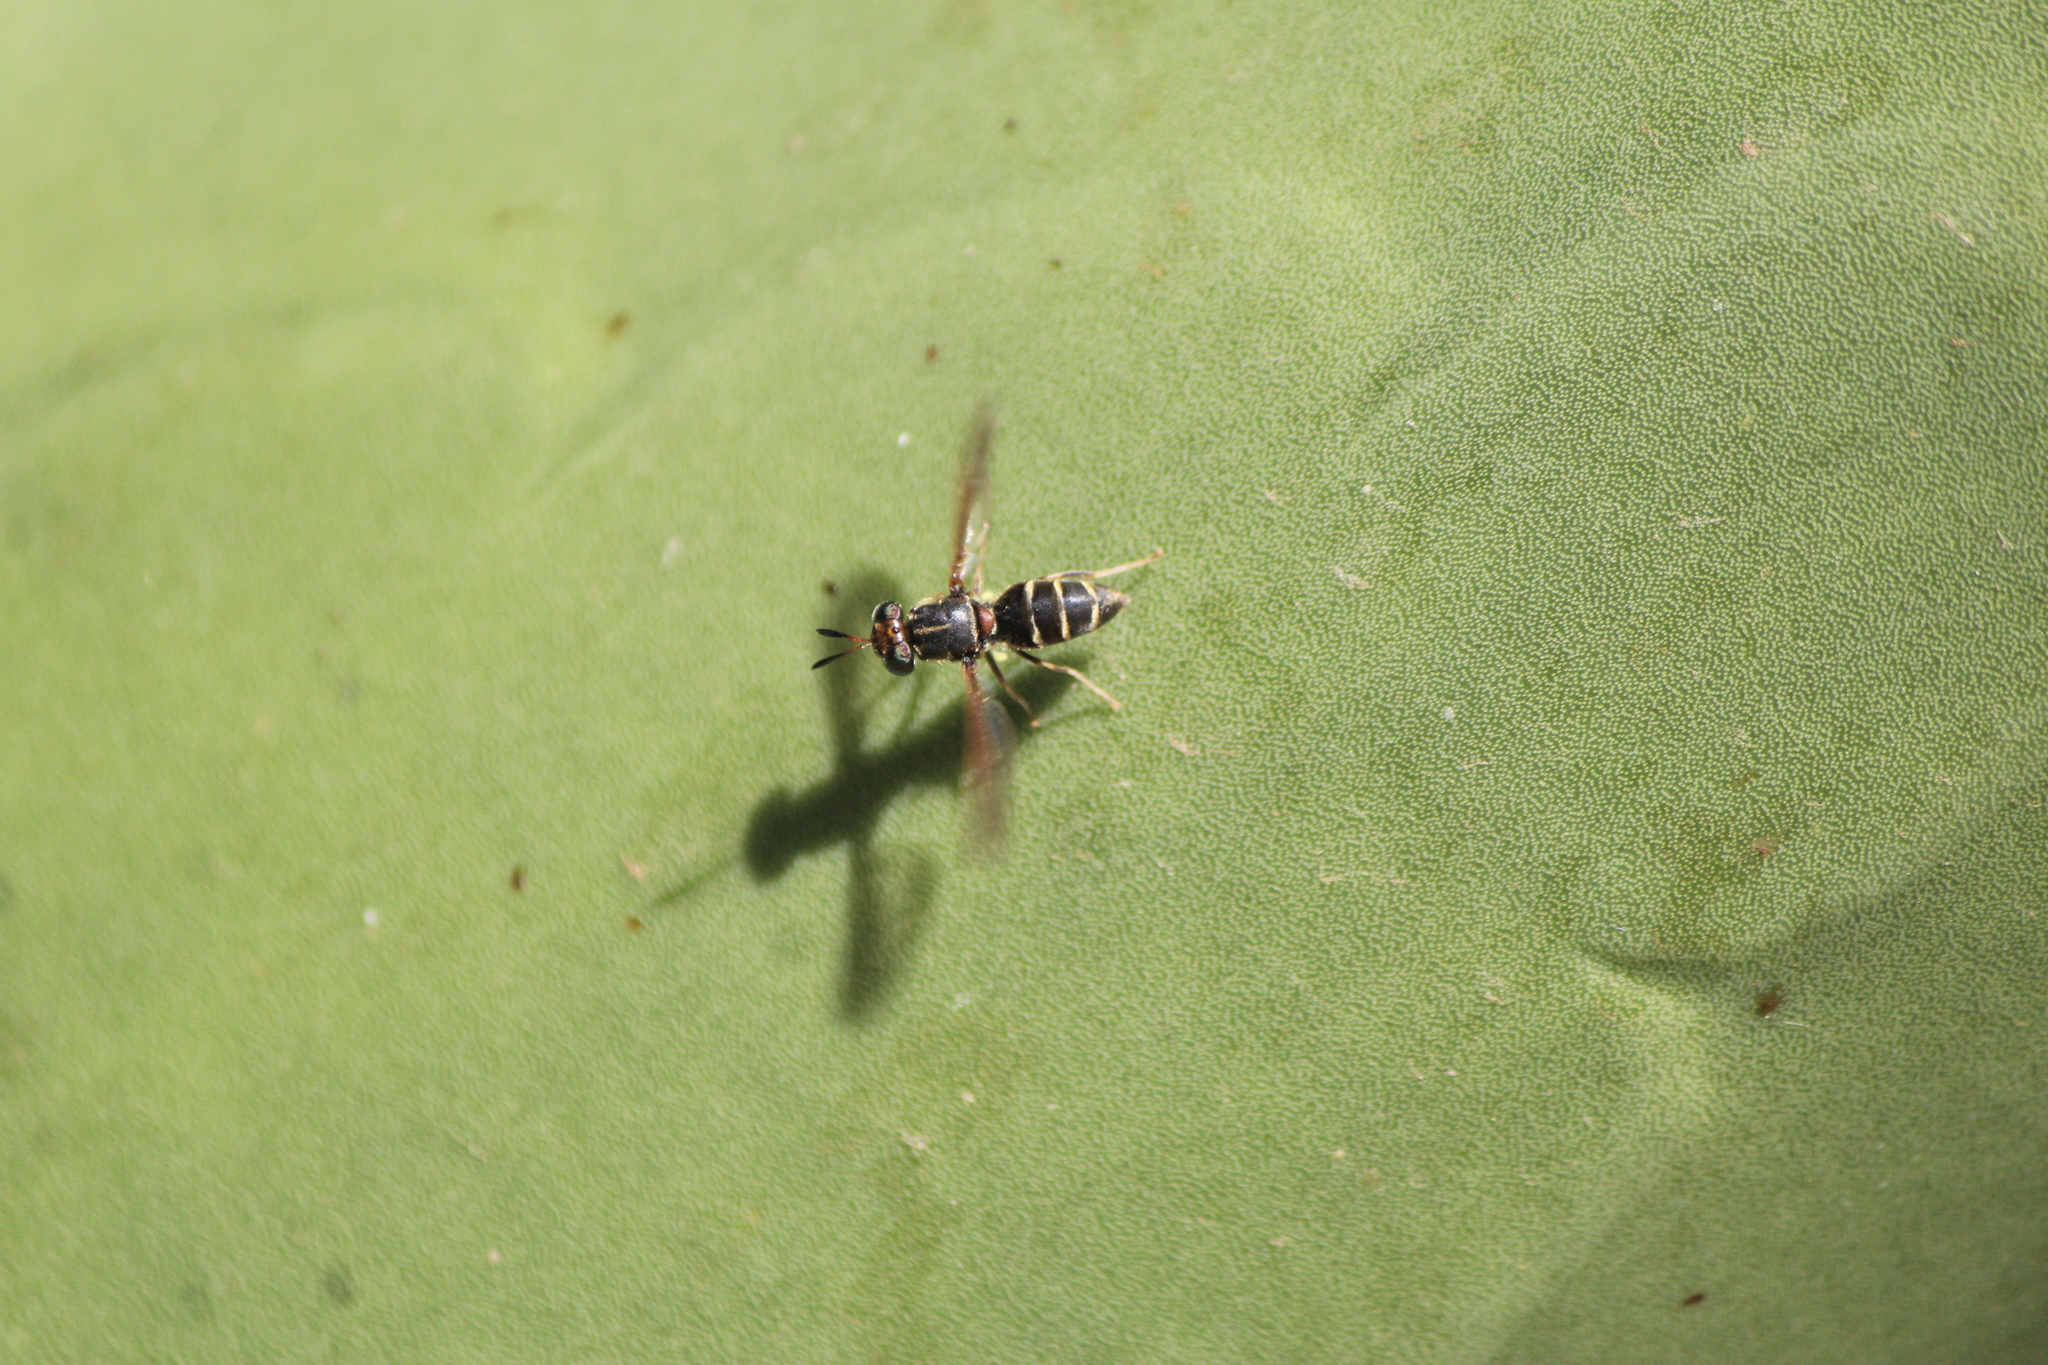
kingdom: Animalia
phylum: Arthropoda
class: Insecta
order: Diptera
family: Stratiomyidae
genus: Hermetia
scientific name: Hermetia comstocki
